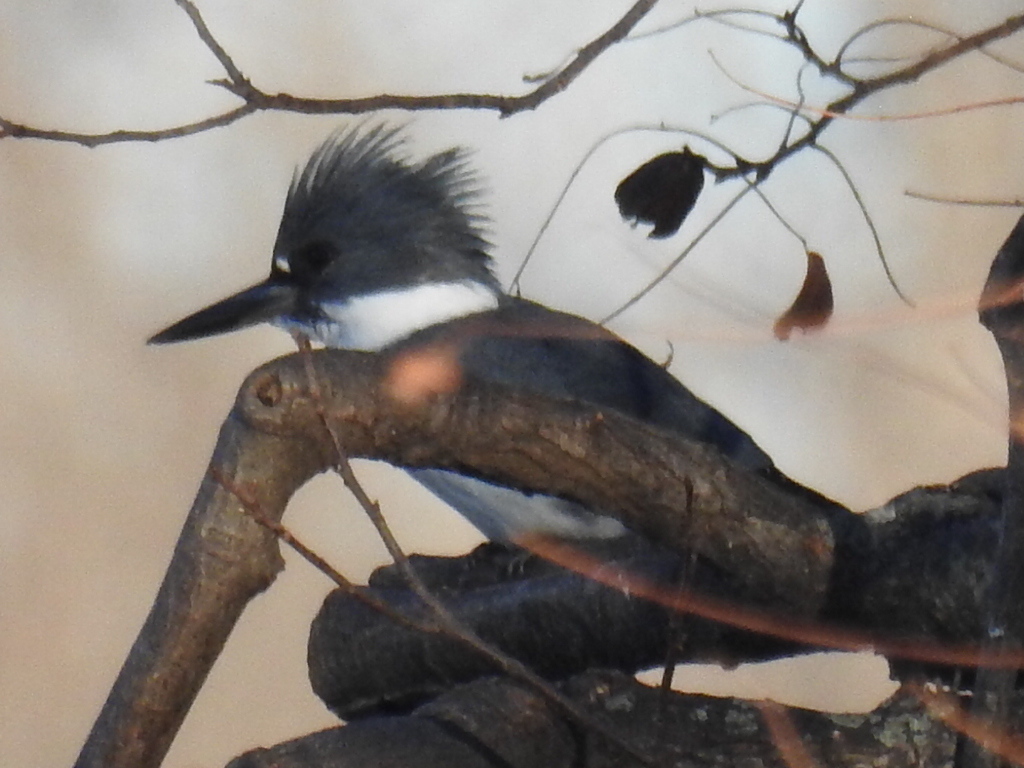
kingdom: Animalia
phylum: Chordata
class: Aves
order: Coraciiformes
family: Alcedinidae
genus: Megaceryle
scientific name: Megaceryle alcyon
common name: Belted kingfisher
